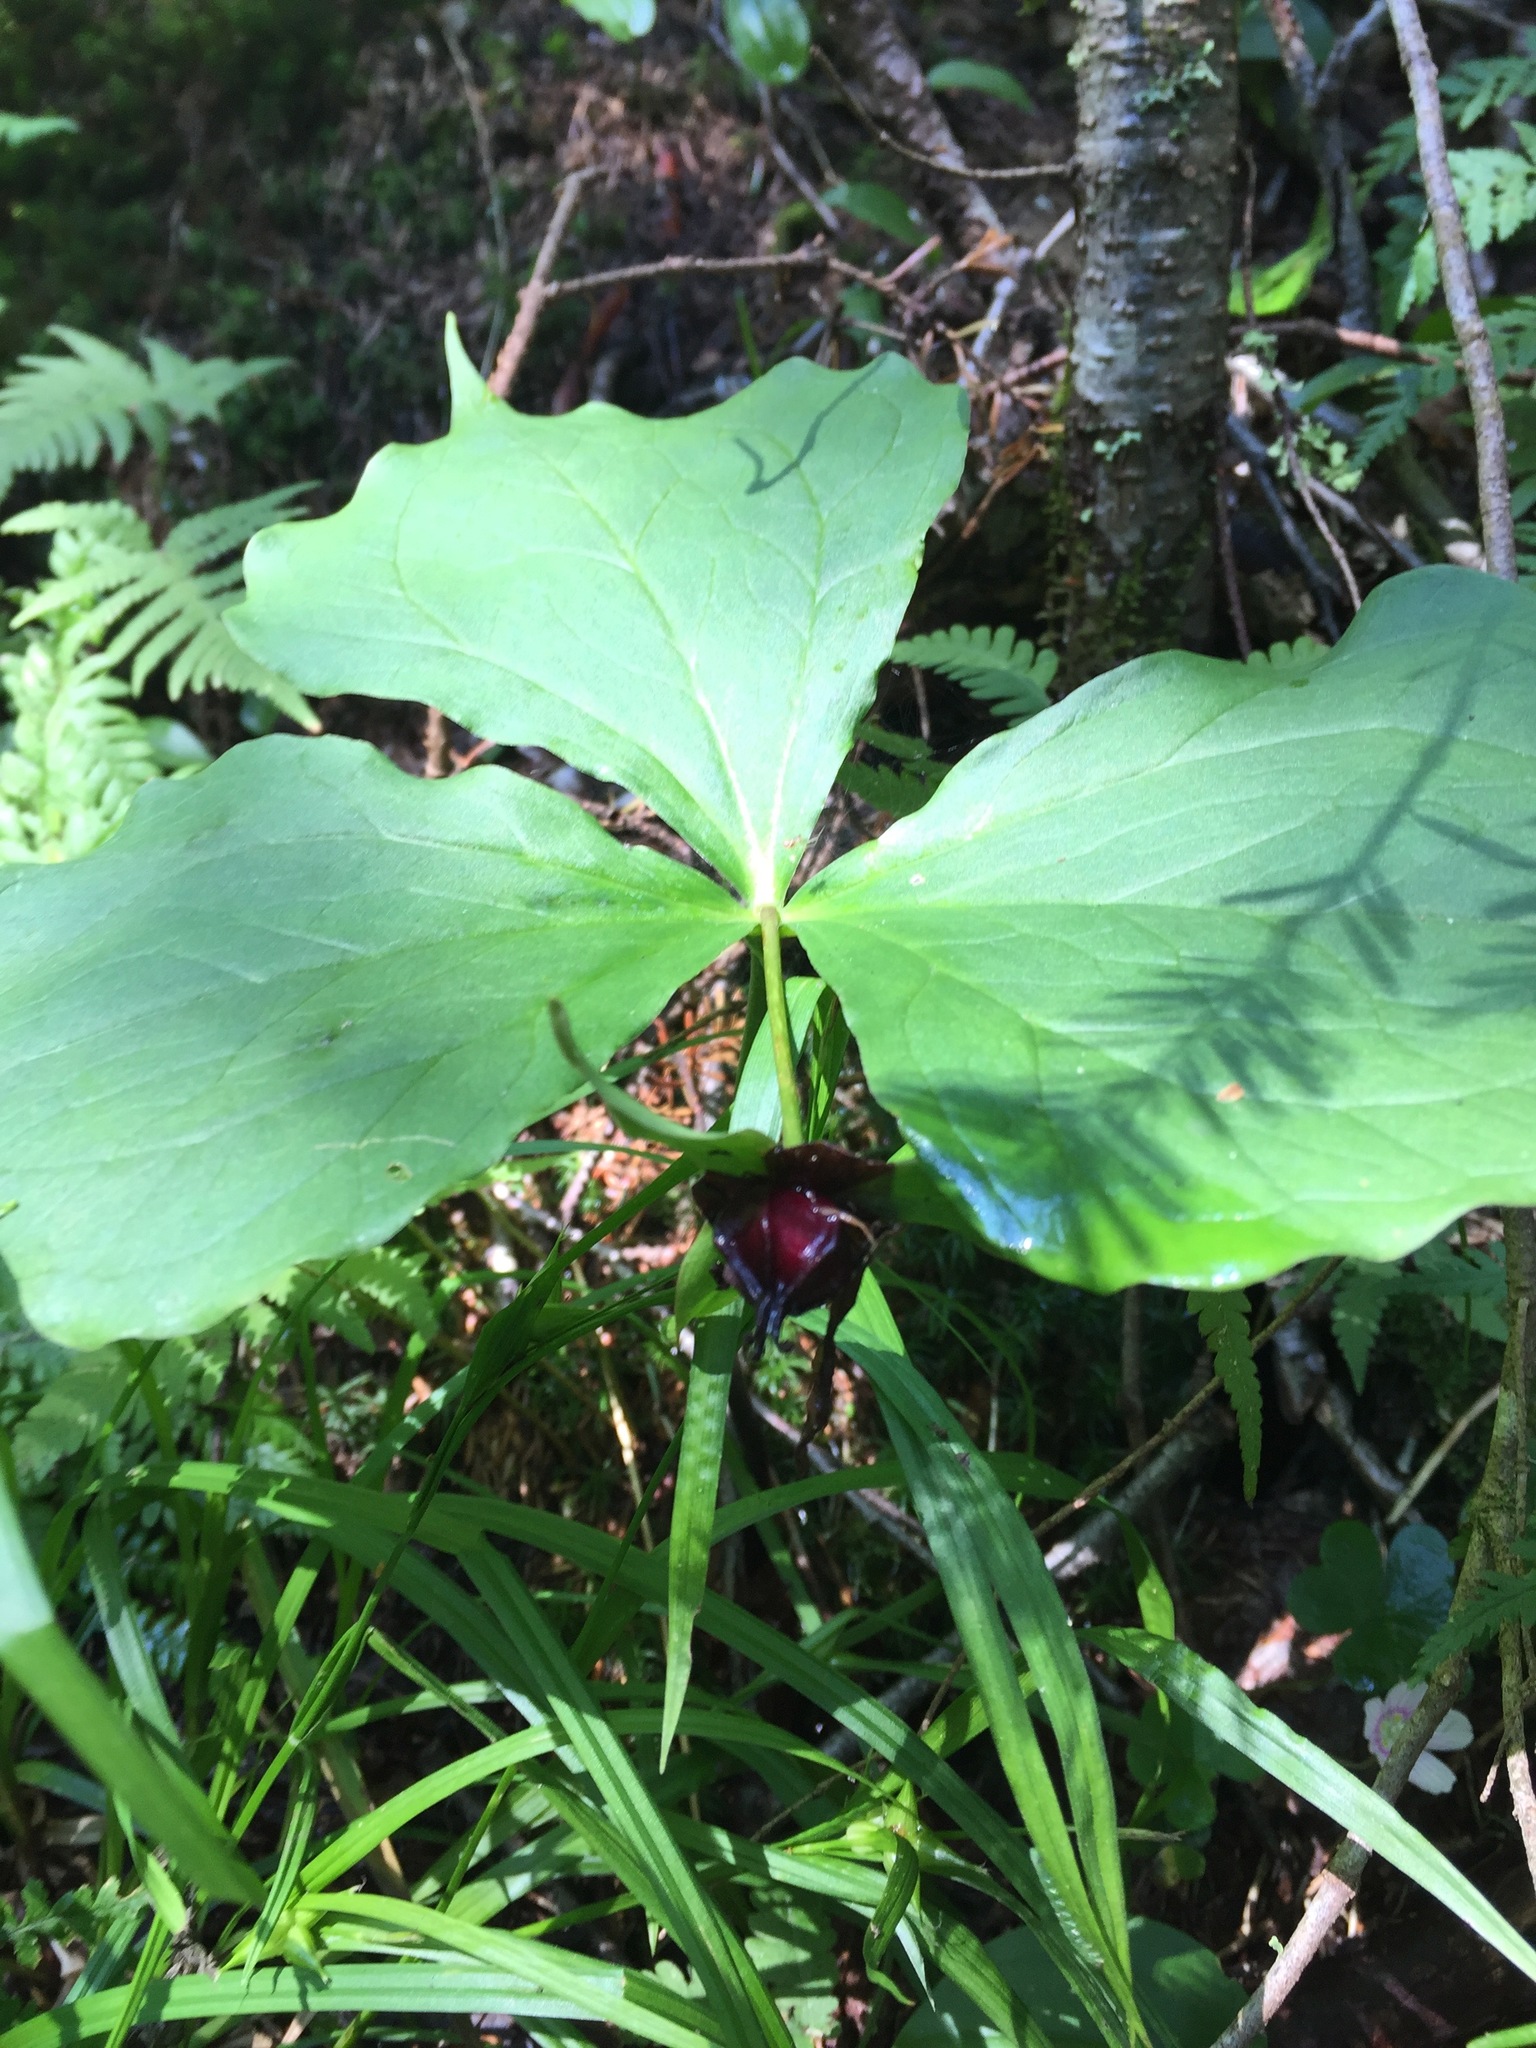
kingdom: Plantae
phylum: Tracheophyta
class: Liliopsida
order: Liliales
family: Melanthiaceae
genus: Trillium
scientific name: Trillium erectum
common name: Purple trillium
